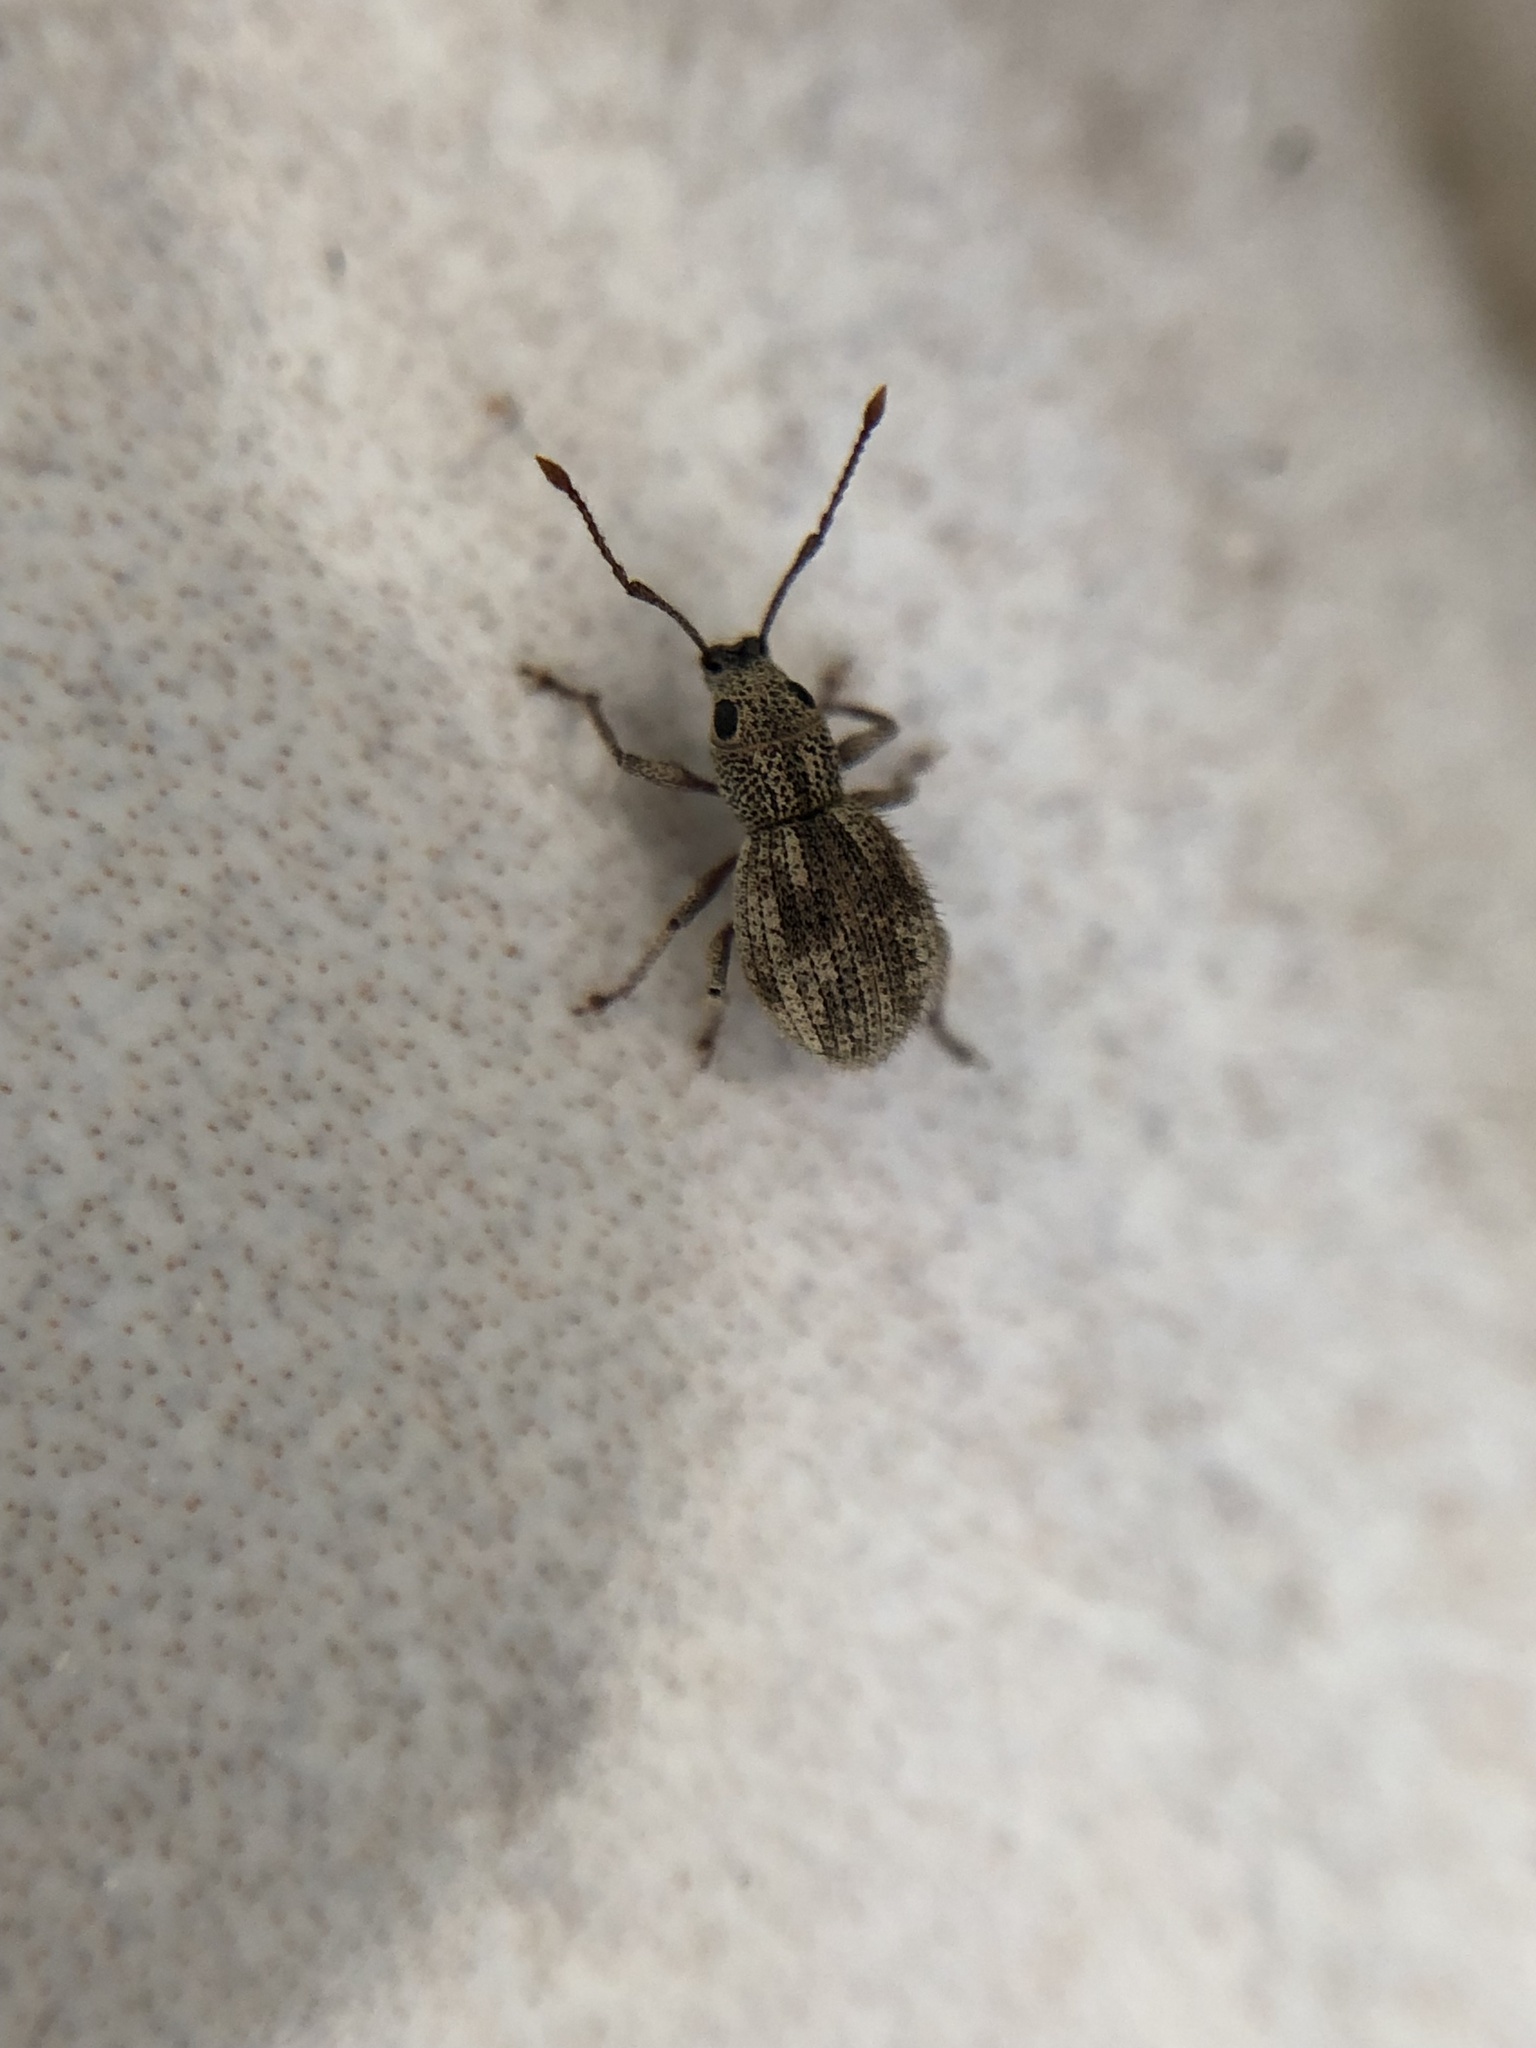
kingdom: Animalia
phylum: Arthropoda
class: Insecta
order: Coleoptera
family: Curculionidae
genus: Calomycterus
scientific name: Calomycterus setarius
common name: Weevil
